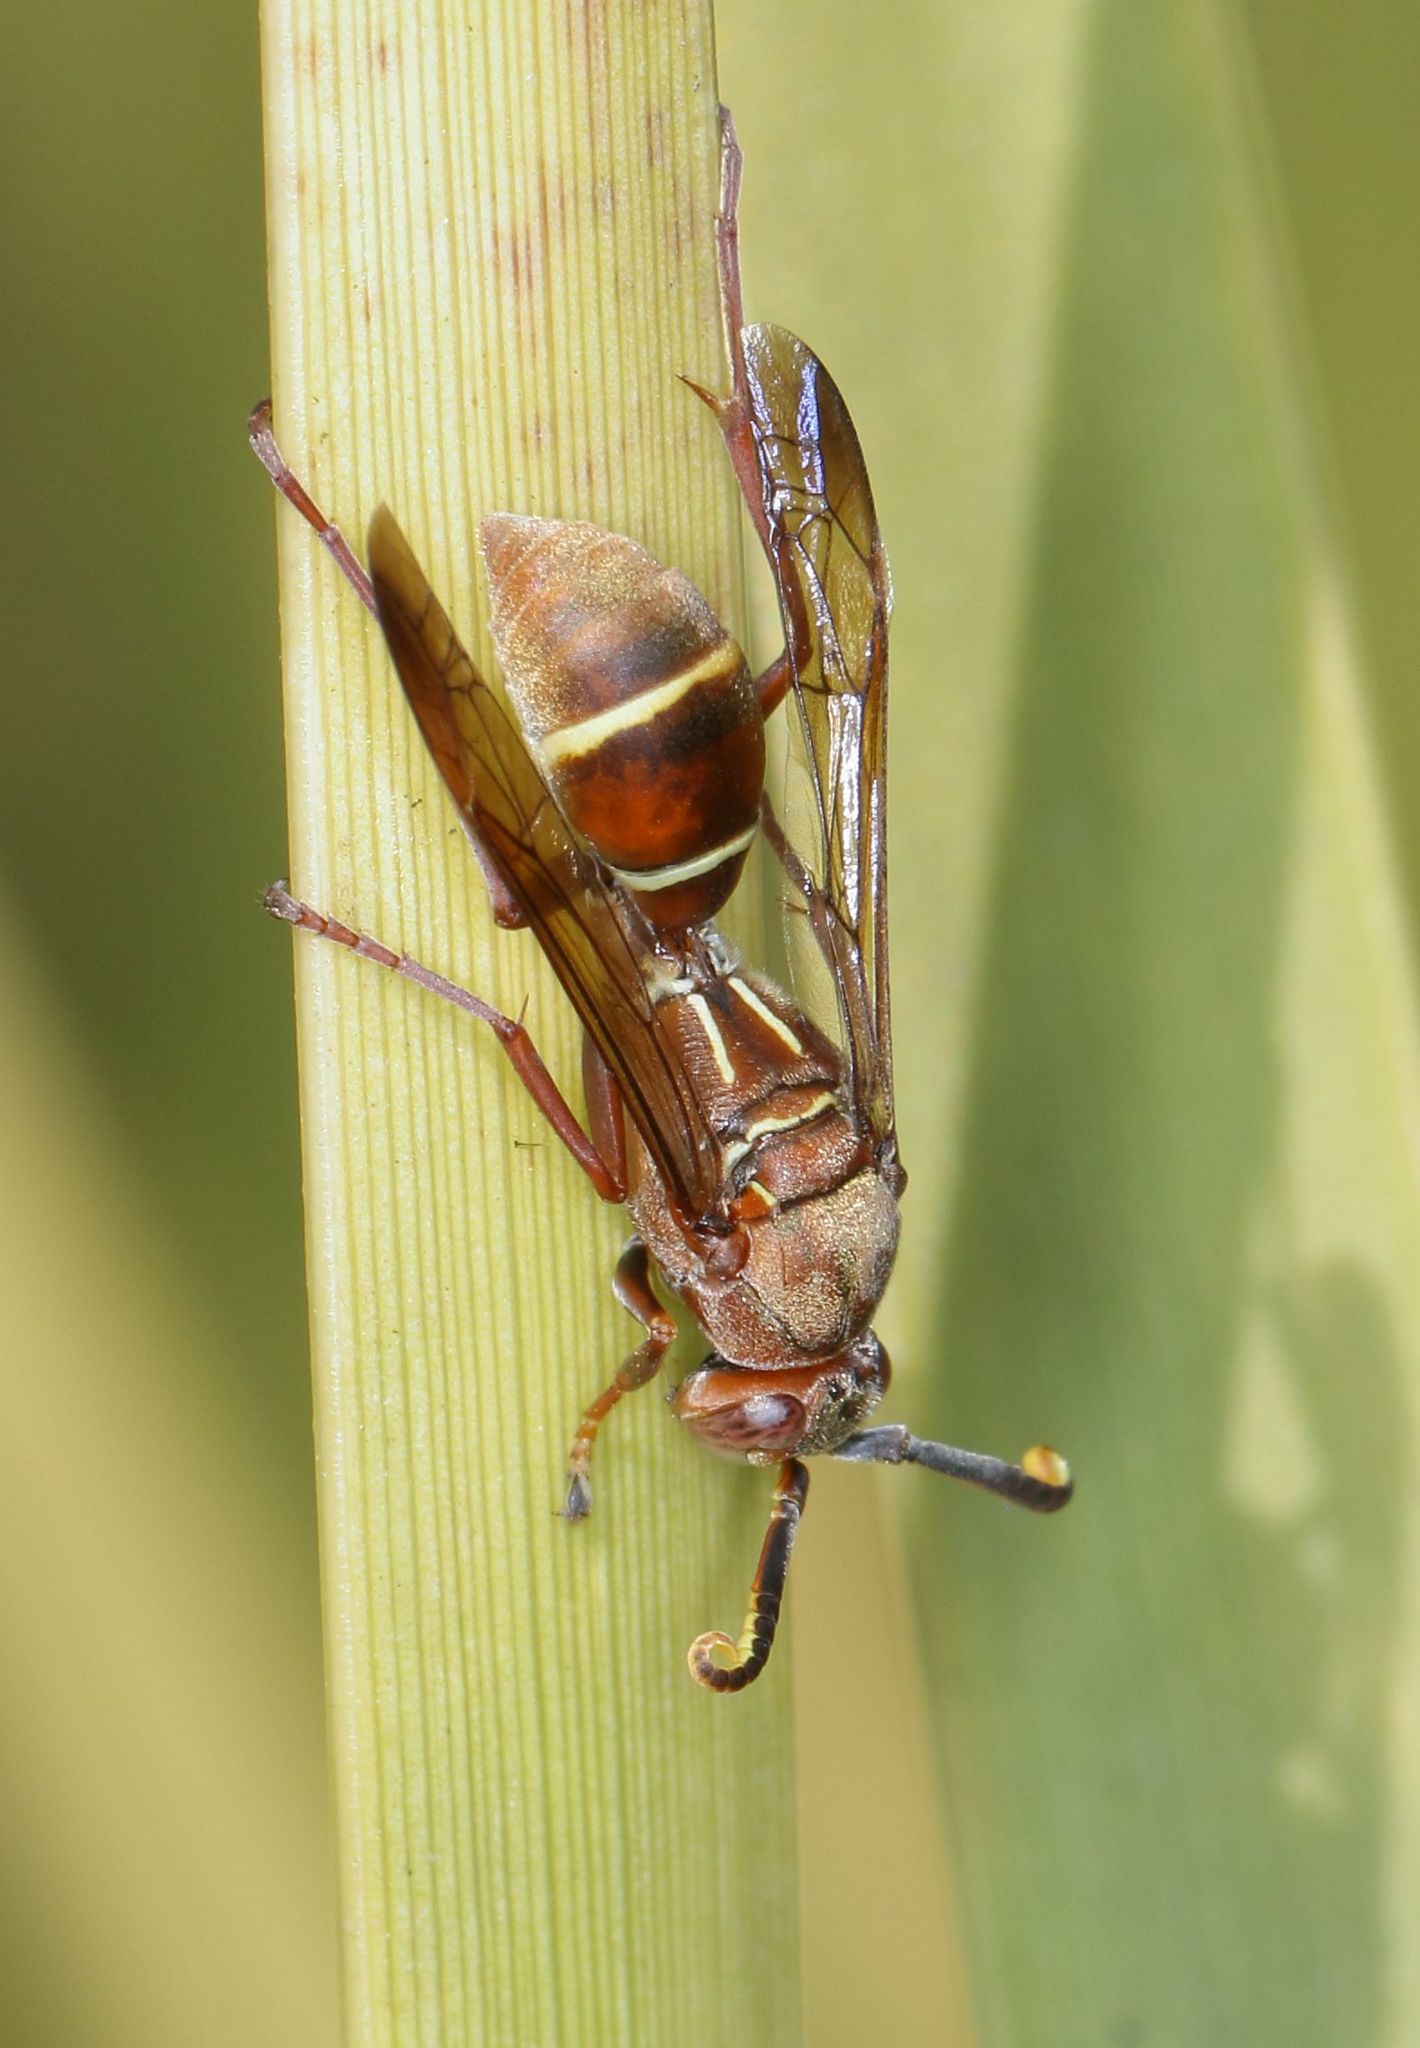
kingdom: Animalia
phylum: Arthropoda
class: Insecta
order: Hymenoptera
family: Eumenidae
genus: Polistes
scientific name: Polistes africanus
